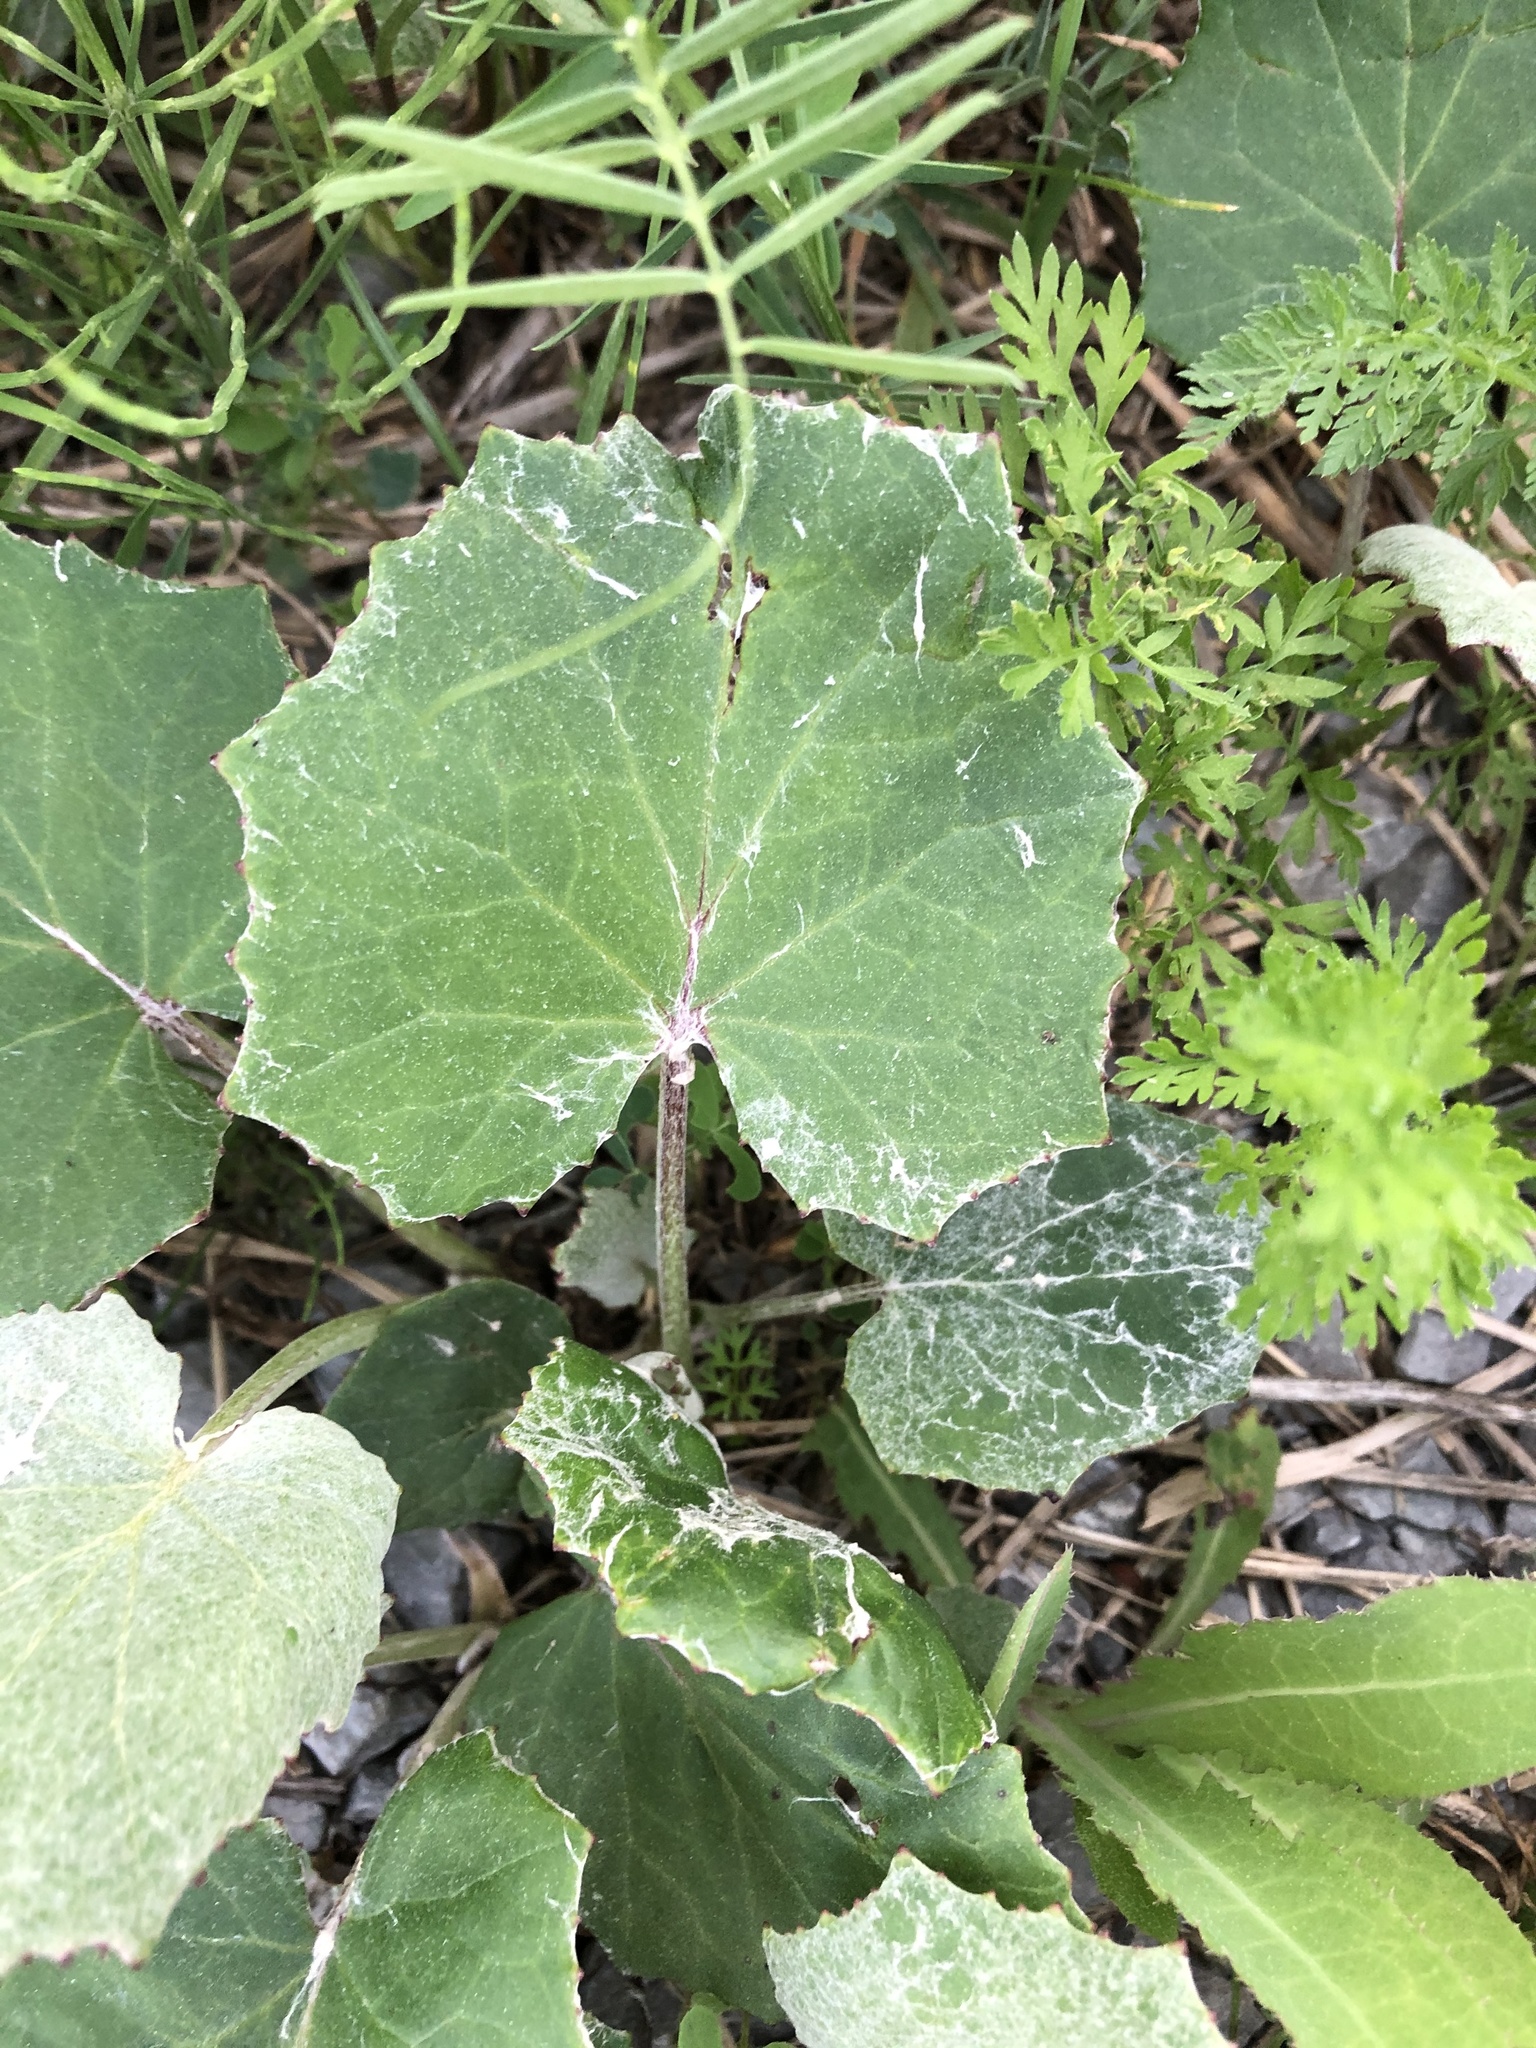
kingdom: Plantae
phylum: Tracheophyta
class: Magnoliopsida
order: Asterales
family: Asteraceae
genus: Tussilago
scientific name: Tussilago farfara
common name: Coltsfoot
